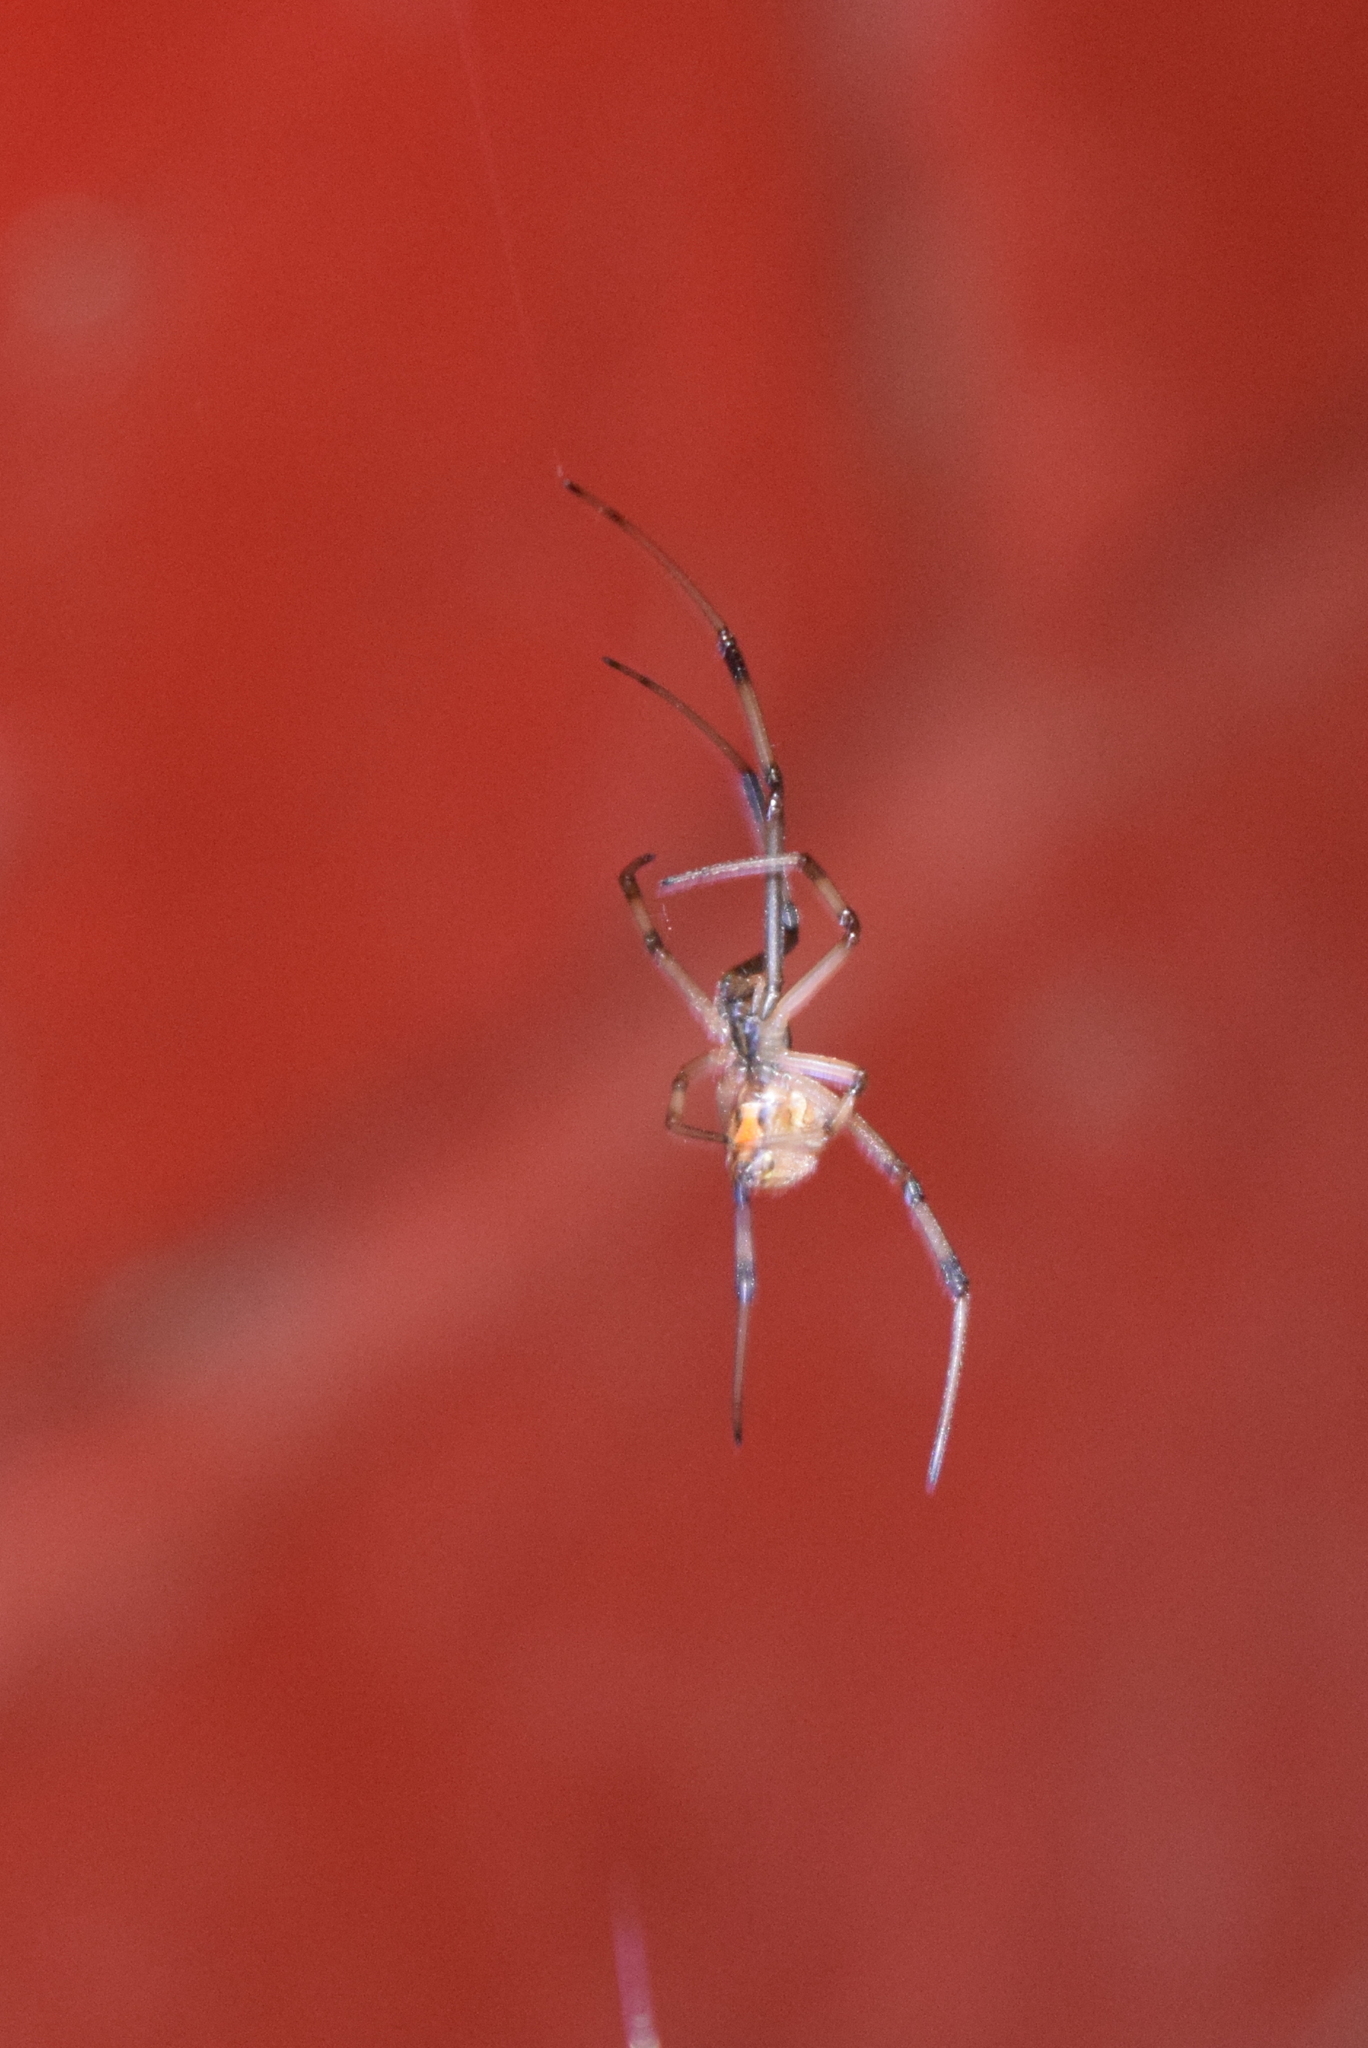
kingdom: Animalia
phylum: Arthropoda
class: Arachnida
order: Araneae
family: Theridiidae
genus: Latrodectus
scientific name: Latrodectus geometricus
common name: Brown widow spider
